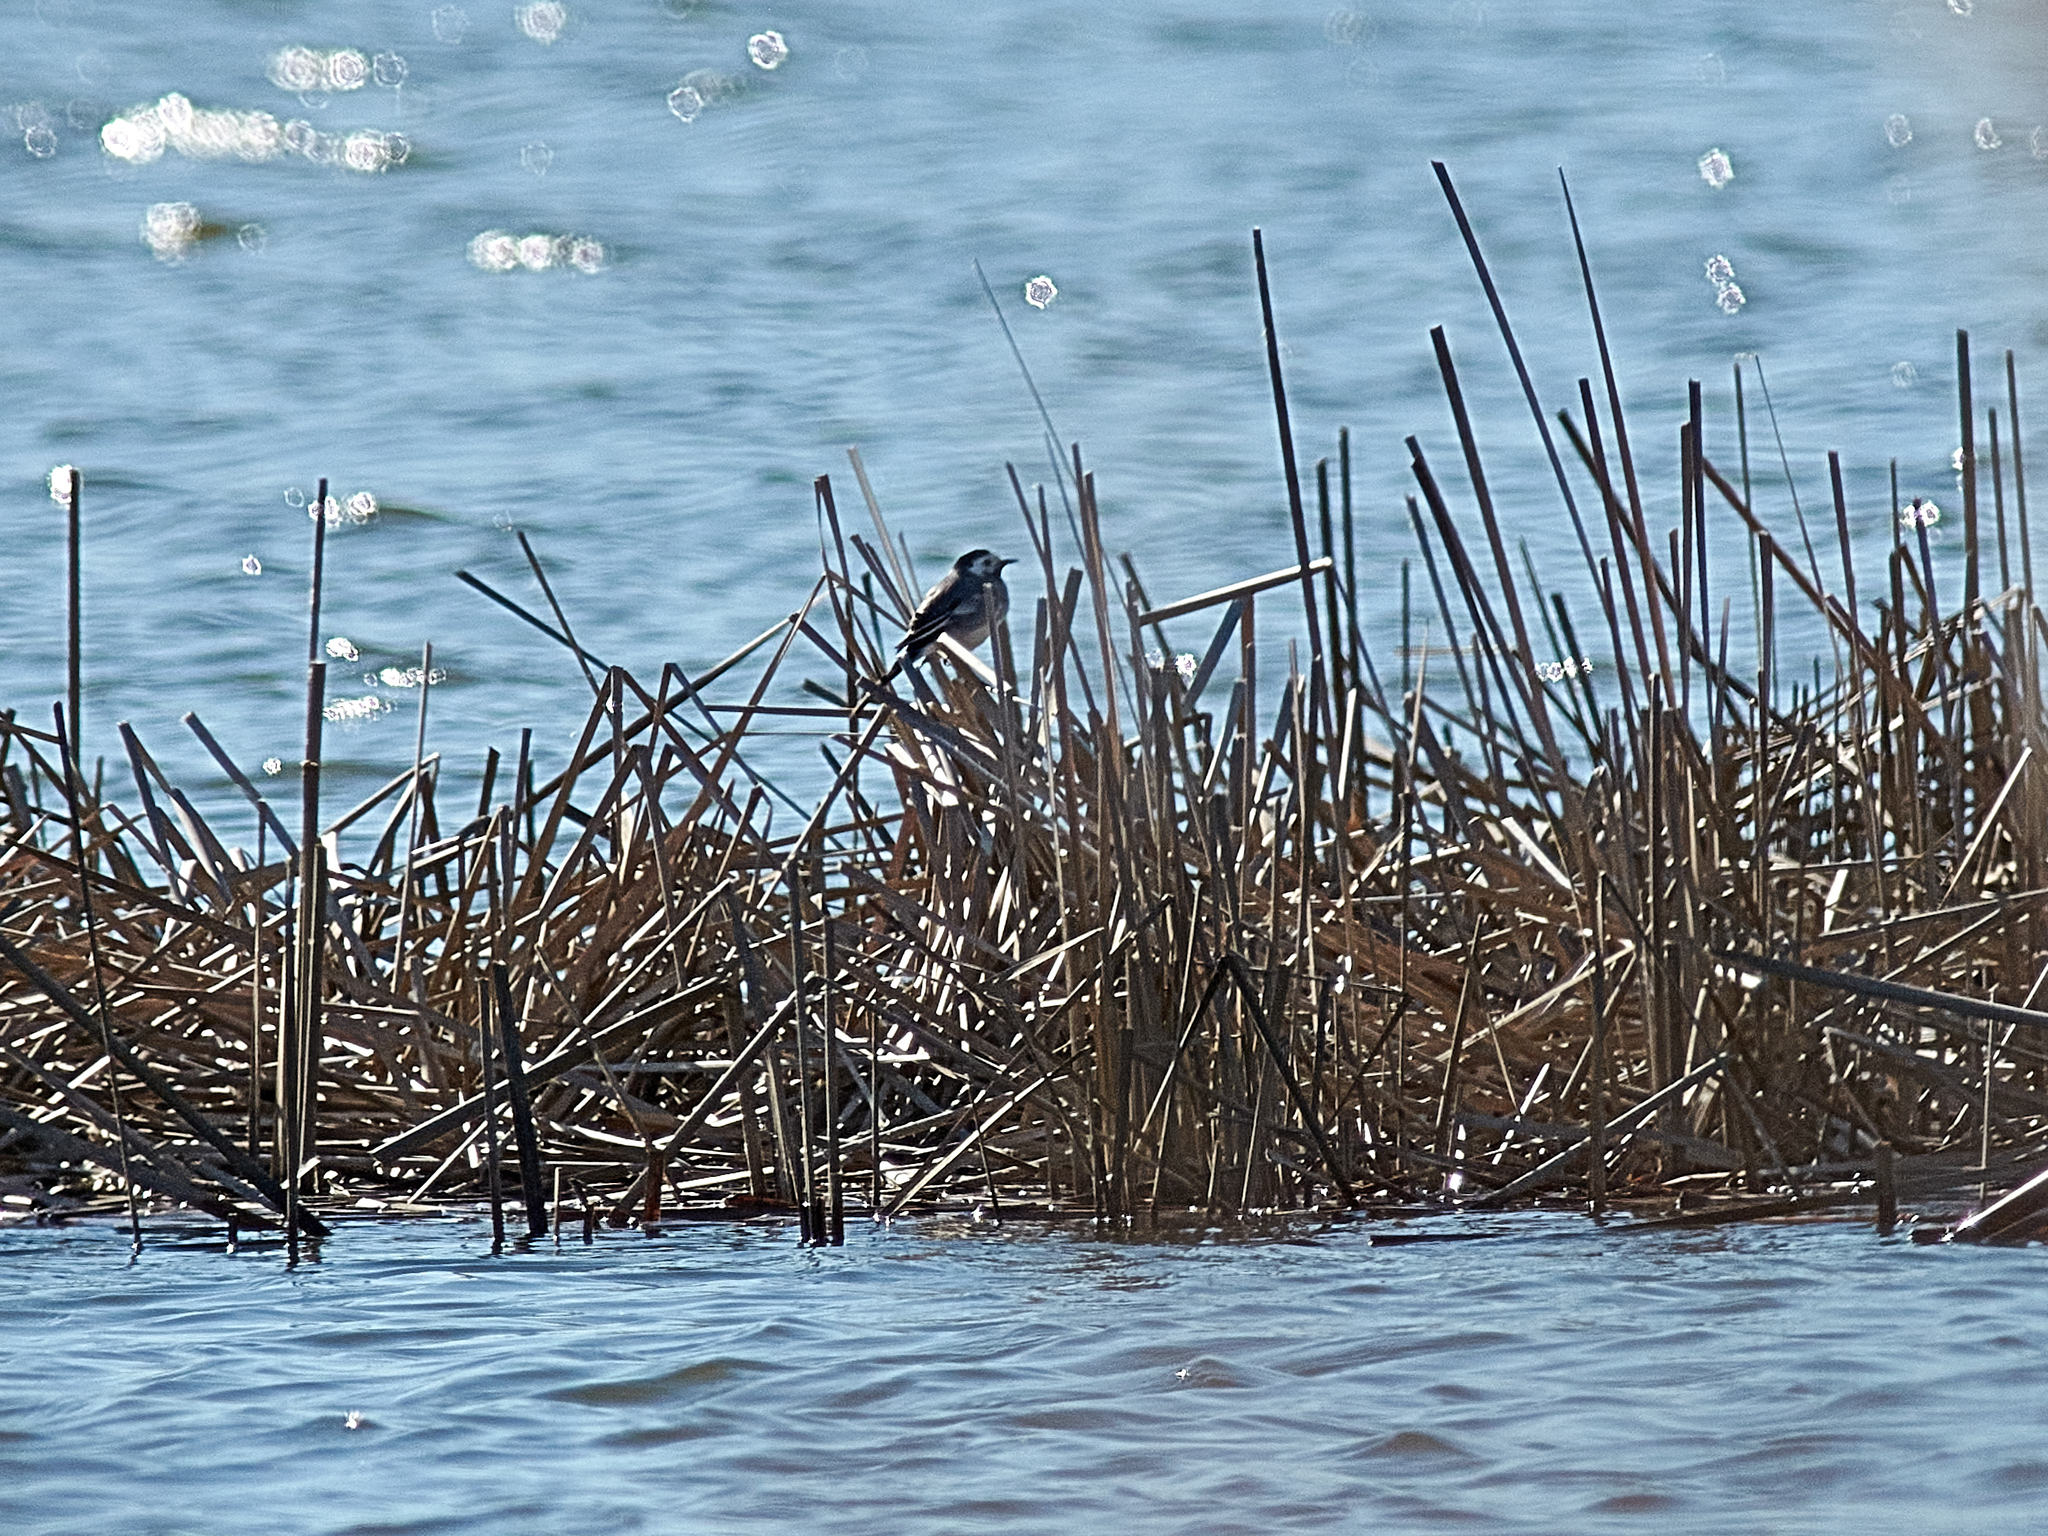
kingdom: Animalia
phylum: Chordata
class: Aves
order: Passeriformes
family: Motacillidae
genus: Motacilla
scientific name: Motacilla alba
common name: White wagtail
